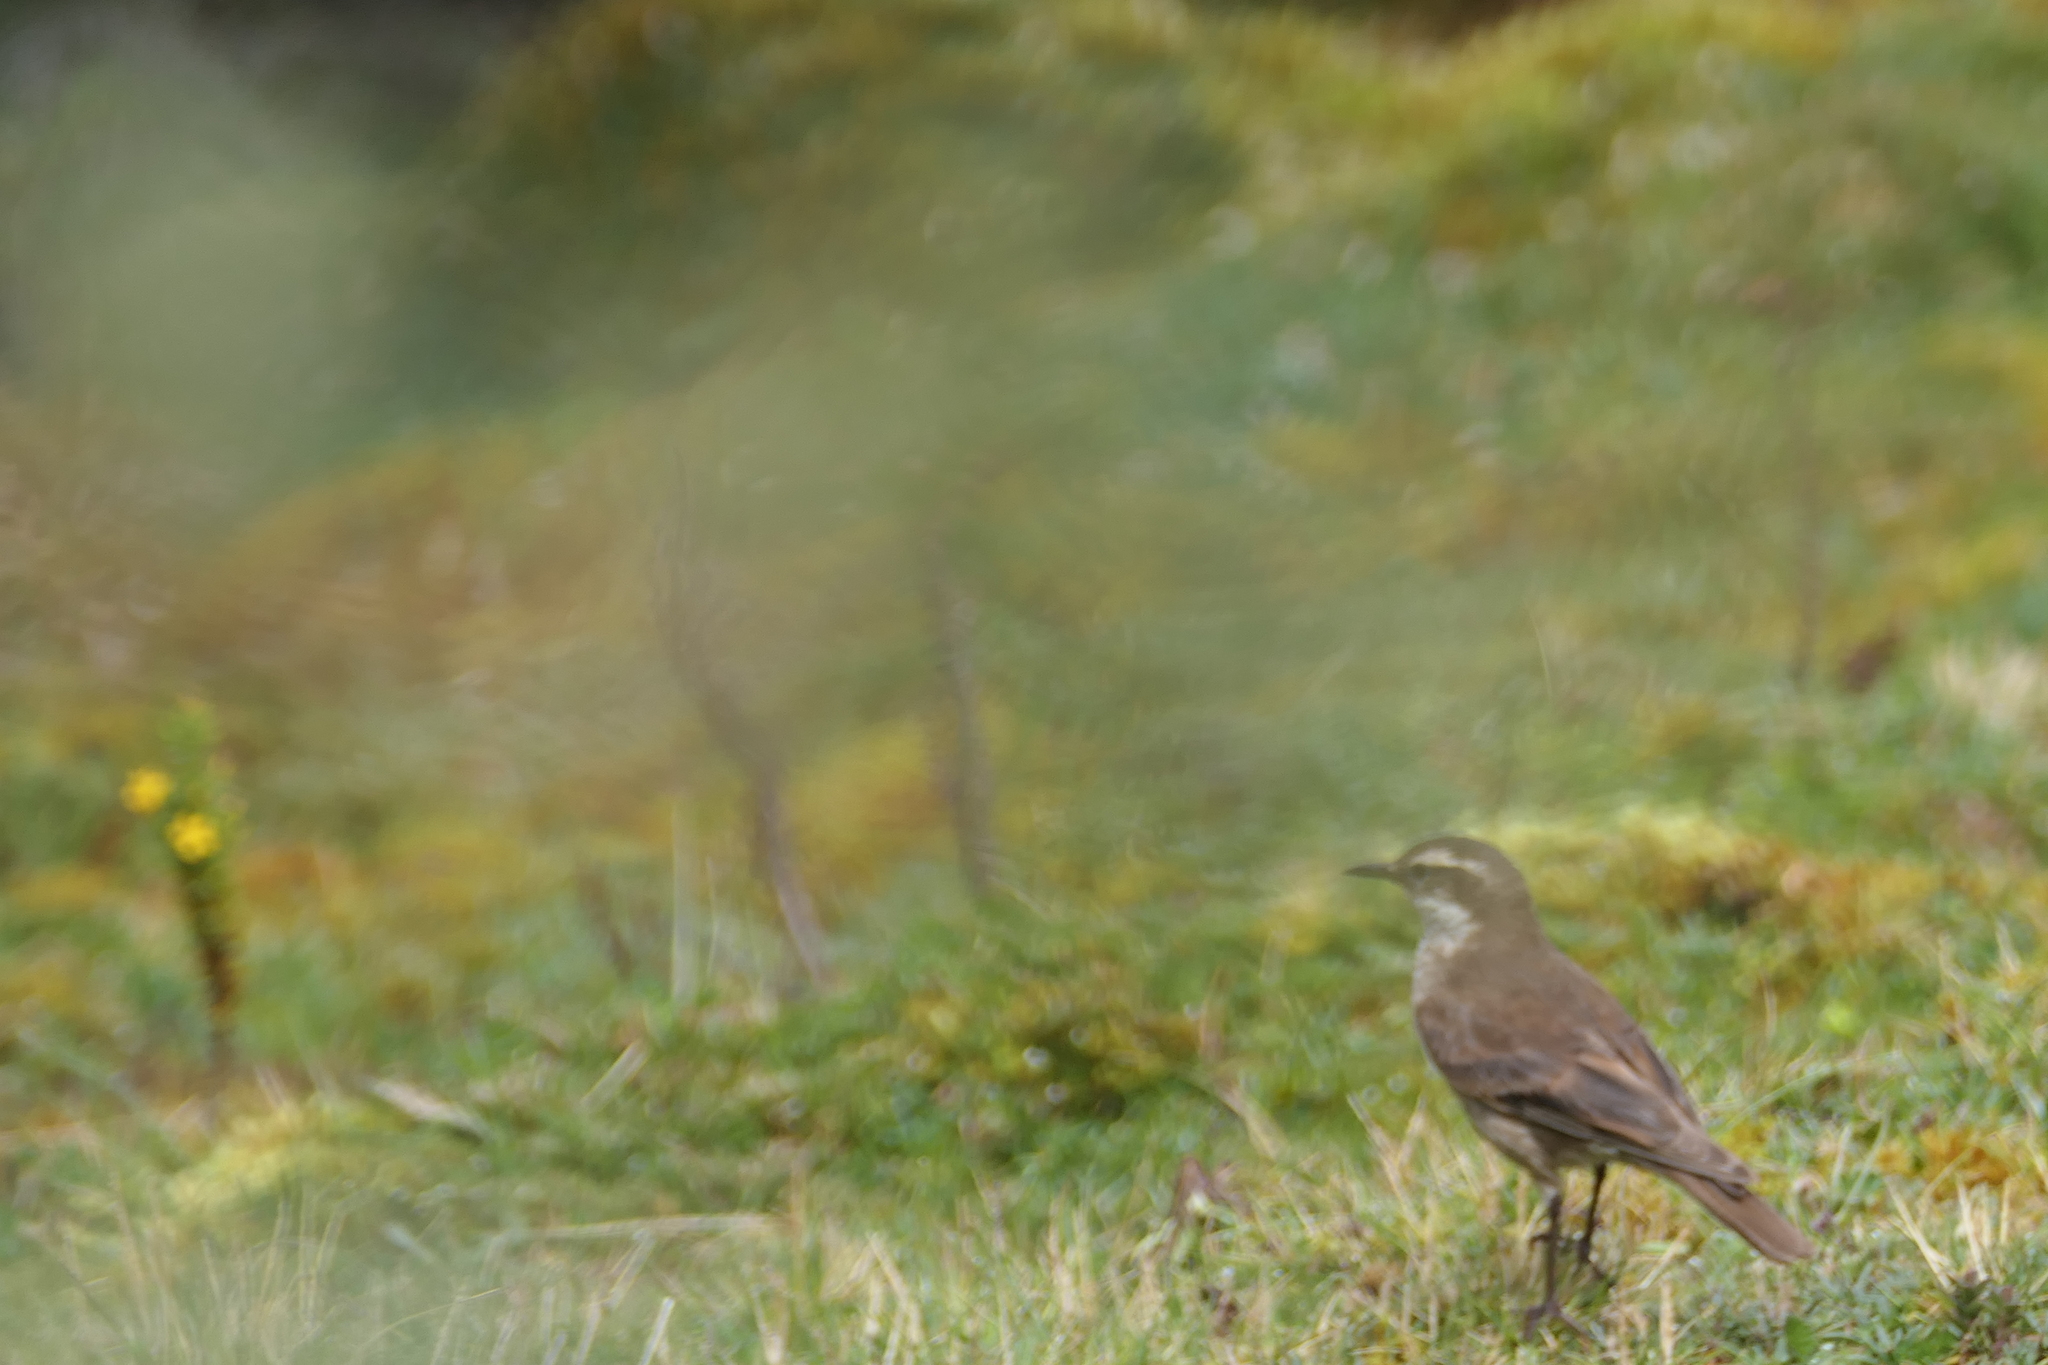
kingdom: Animalia
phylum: Chordata
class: Aves
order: Passeriformes
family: Furnariidae
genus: Cinclodes
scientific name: Cinclodes albidiventris
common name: Chestnut-winged cinclodes
